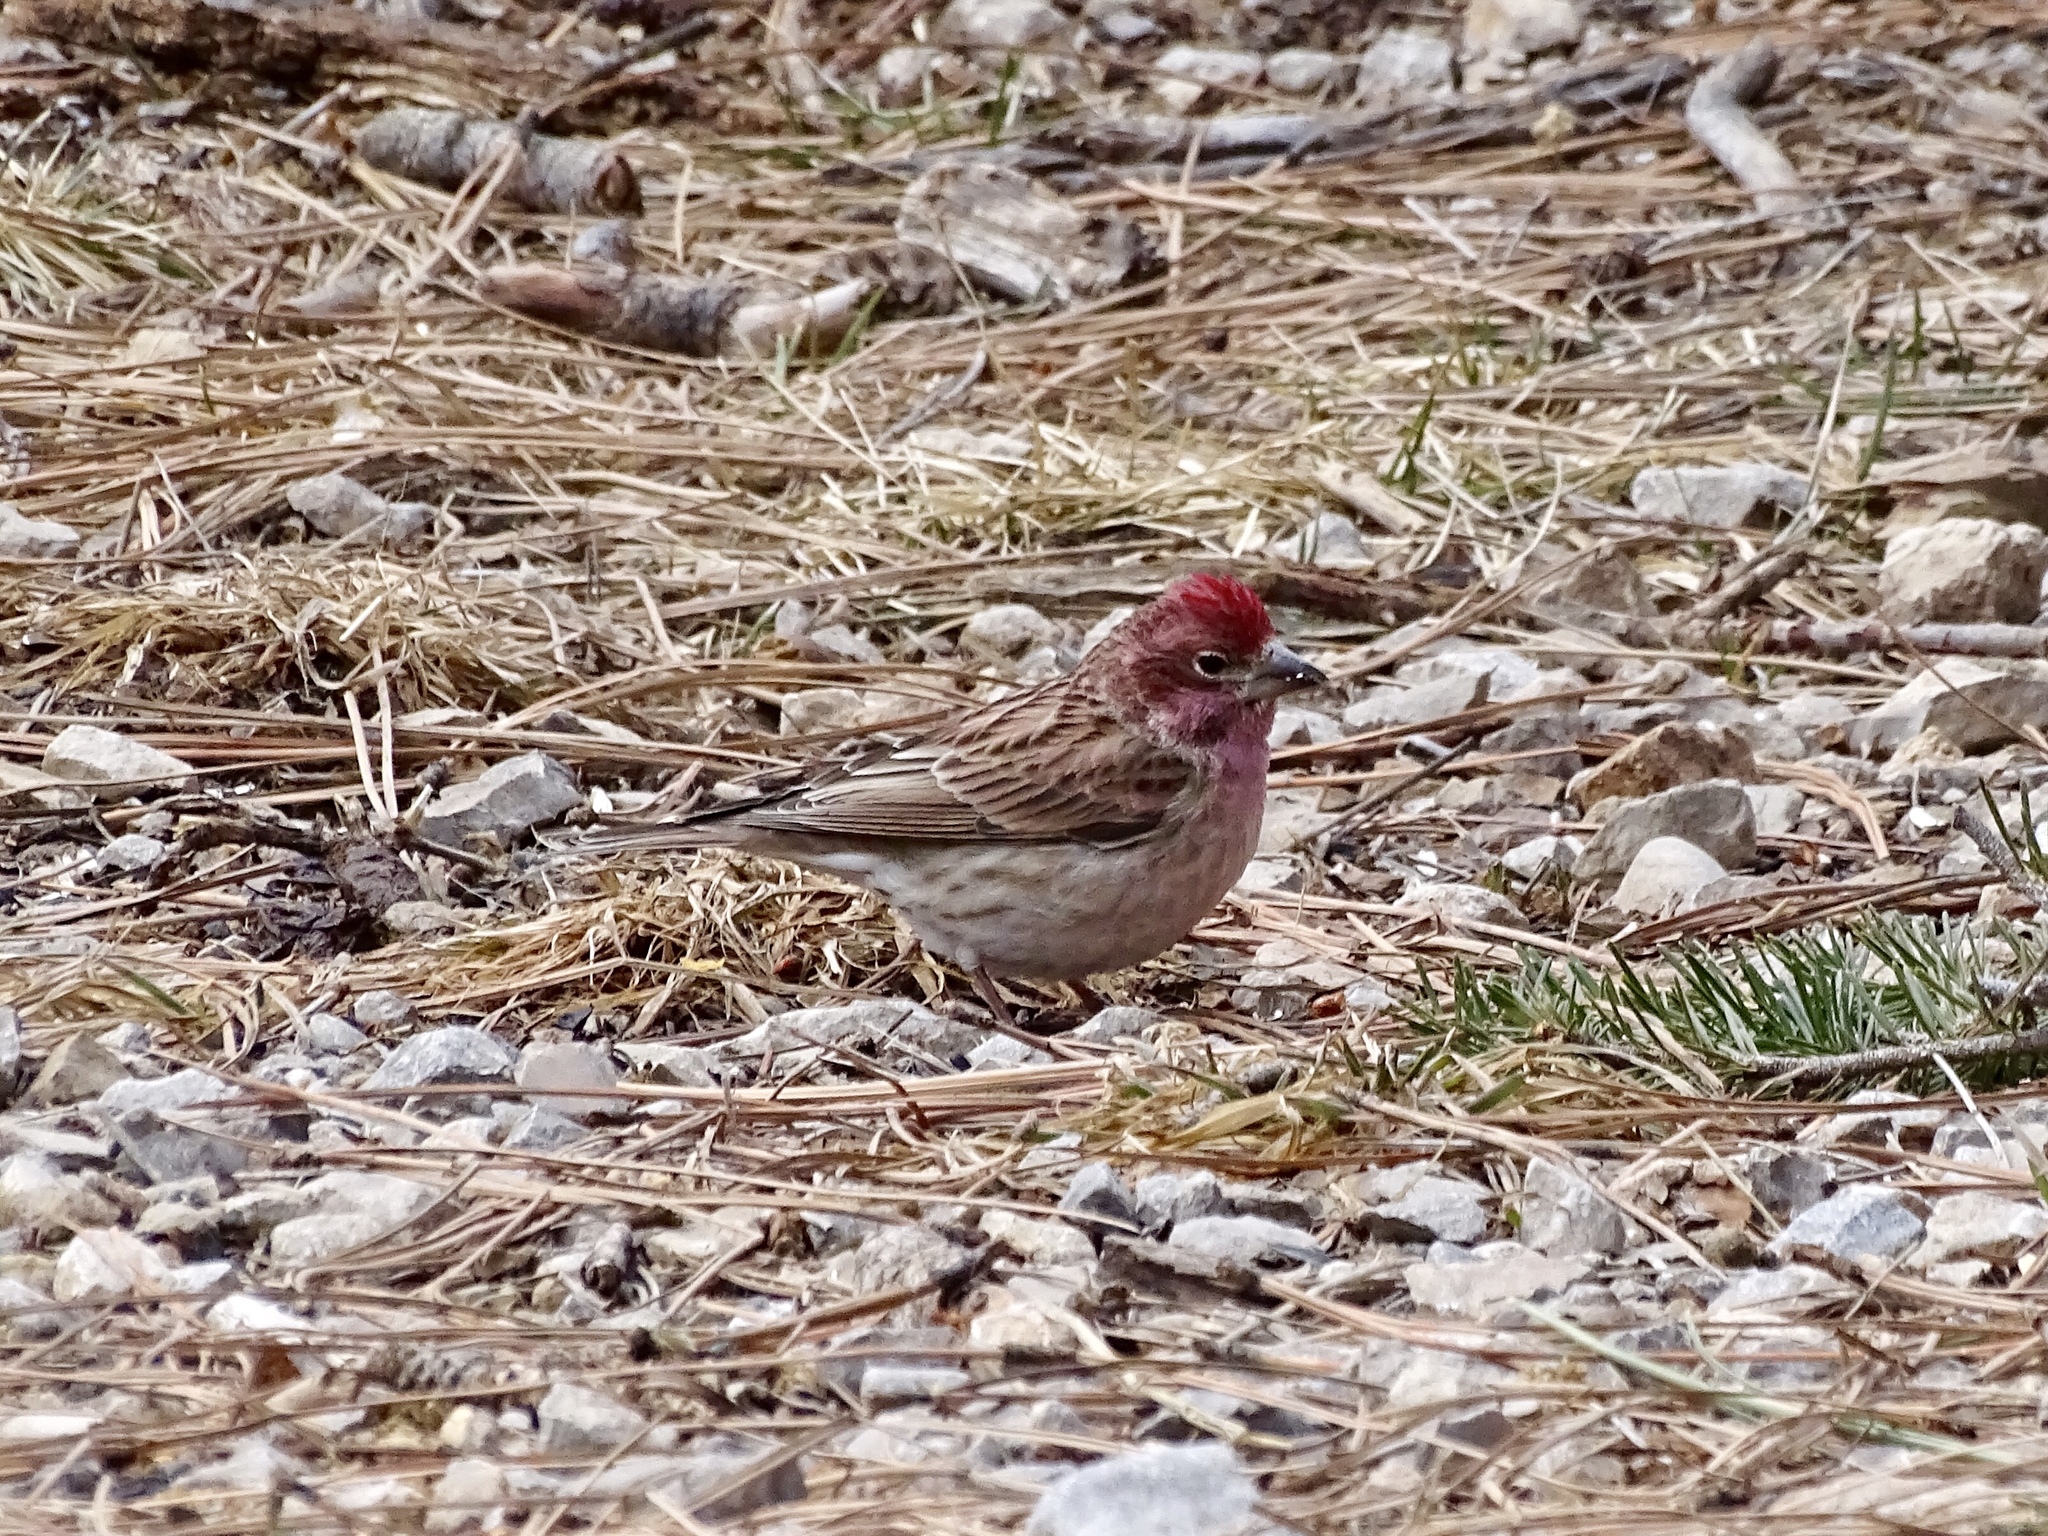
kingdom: Animalia
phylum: Chordata
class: Aves
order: Passeriformes
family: Fringillidae
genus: Haemorhous
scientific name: Haemorhous cassinii
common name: Cassin's finch
